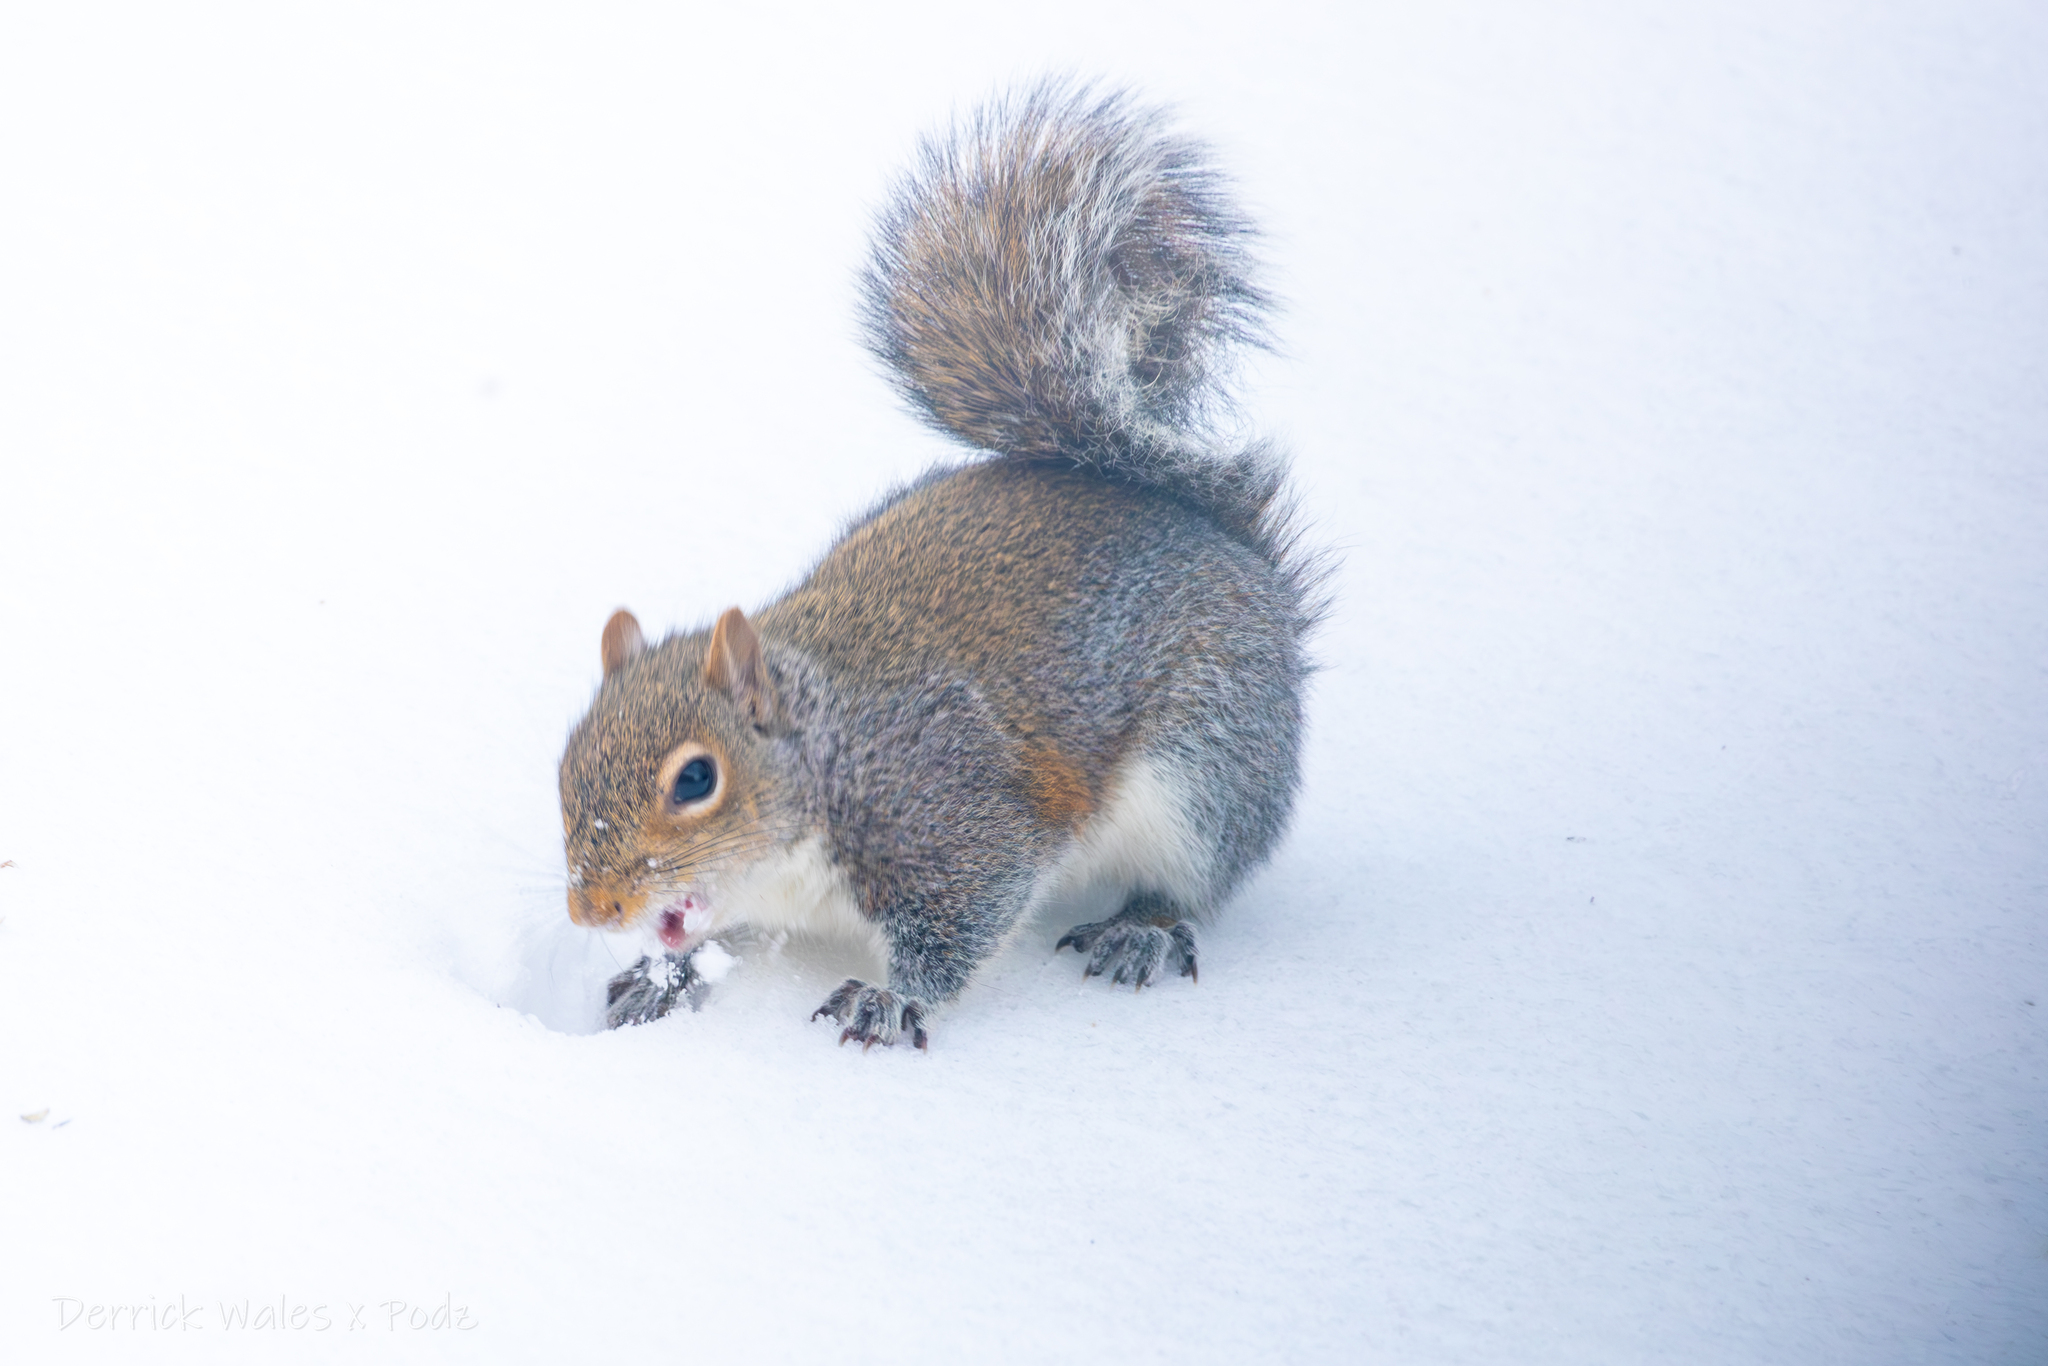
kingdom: Animalia
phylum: Chordata
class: Mammalia
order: Rodentia
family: Sciuridae
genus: Sciurus
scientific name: Sciurus carolinensis
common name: Eastern gray squirrel
